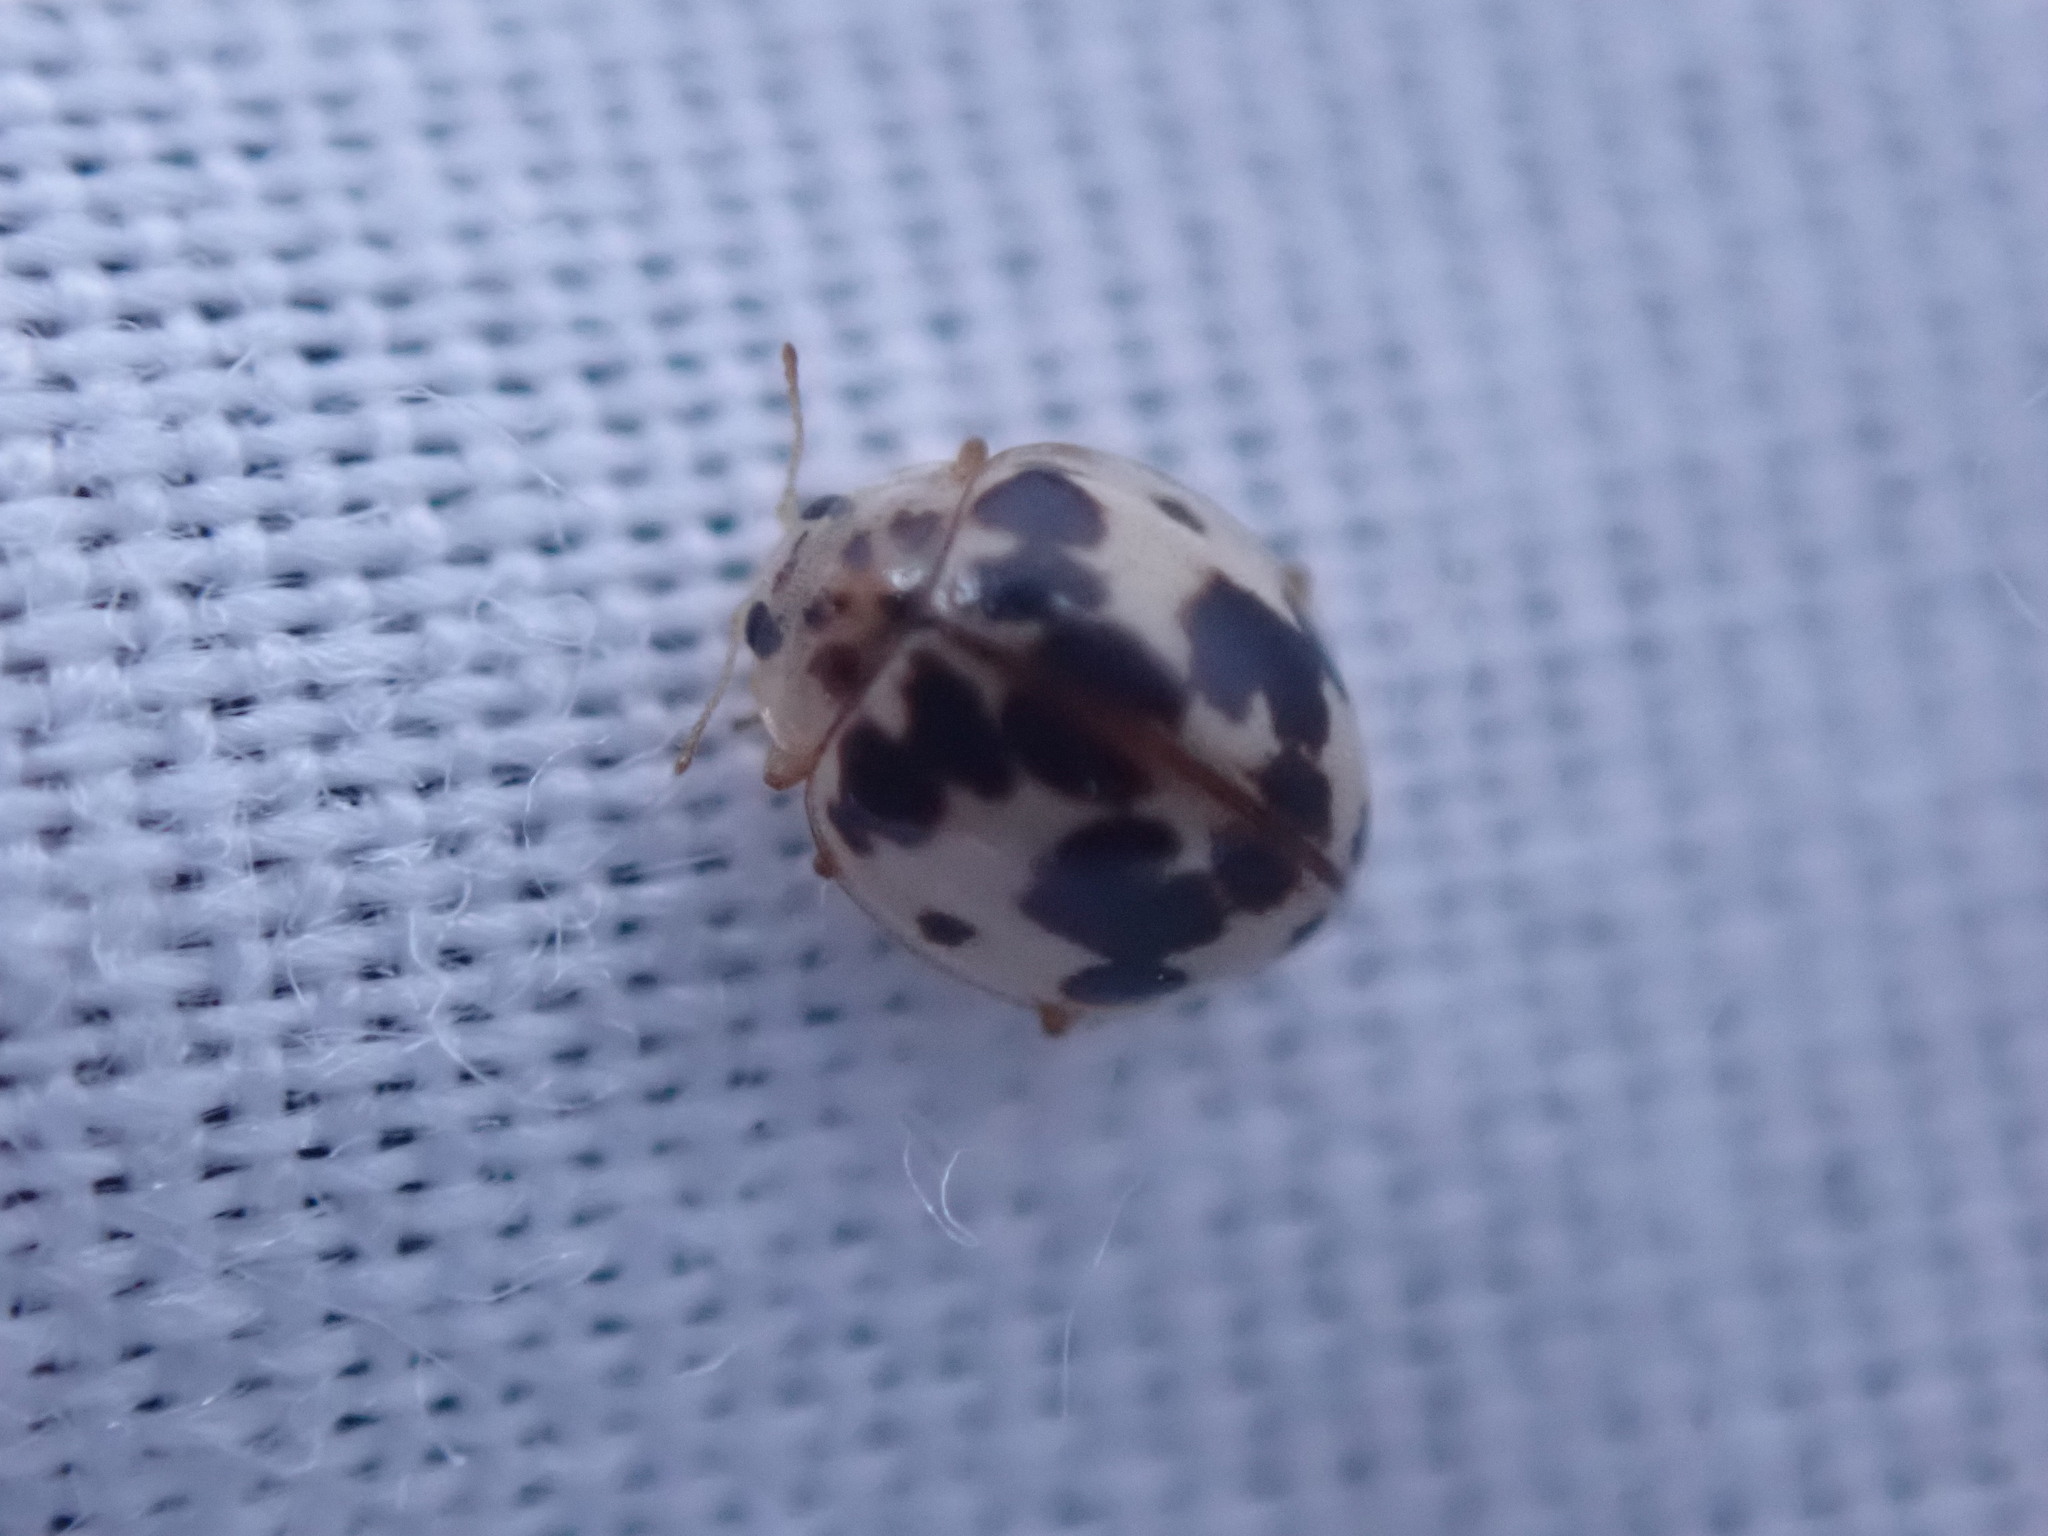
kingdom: Animalia
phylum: Arthropoda
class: Insecta
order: Coleoptera
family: Coccinellidae
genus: Psyllobora
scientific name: Psyllobora borealis
